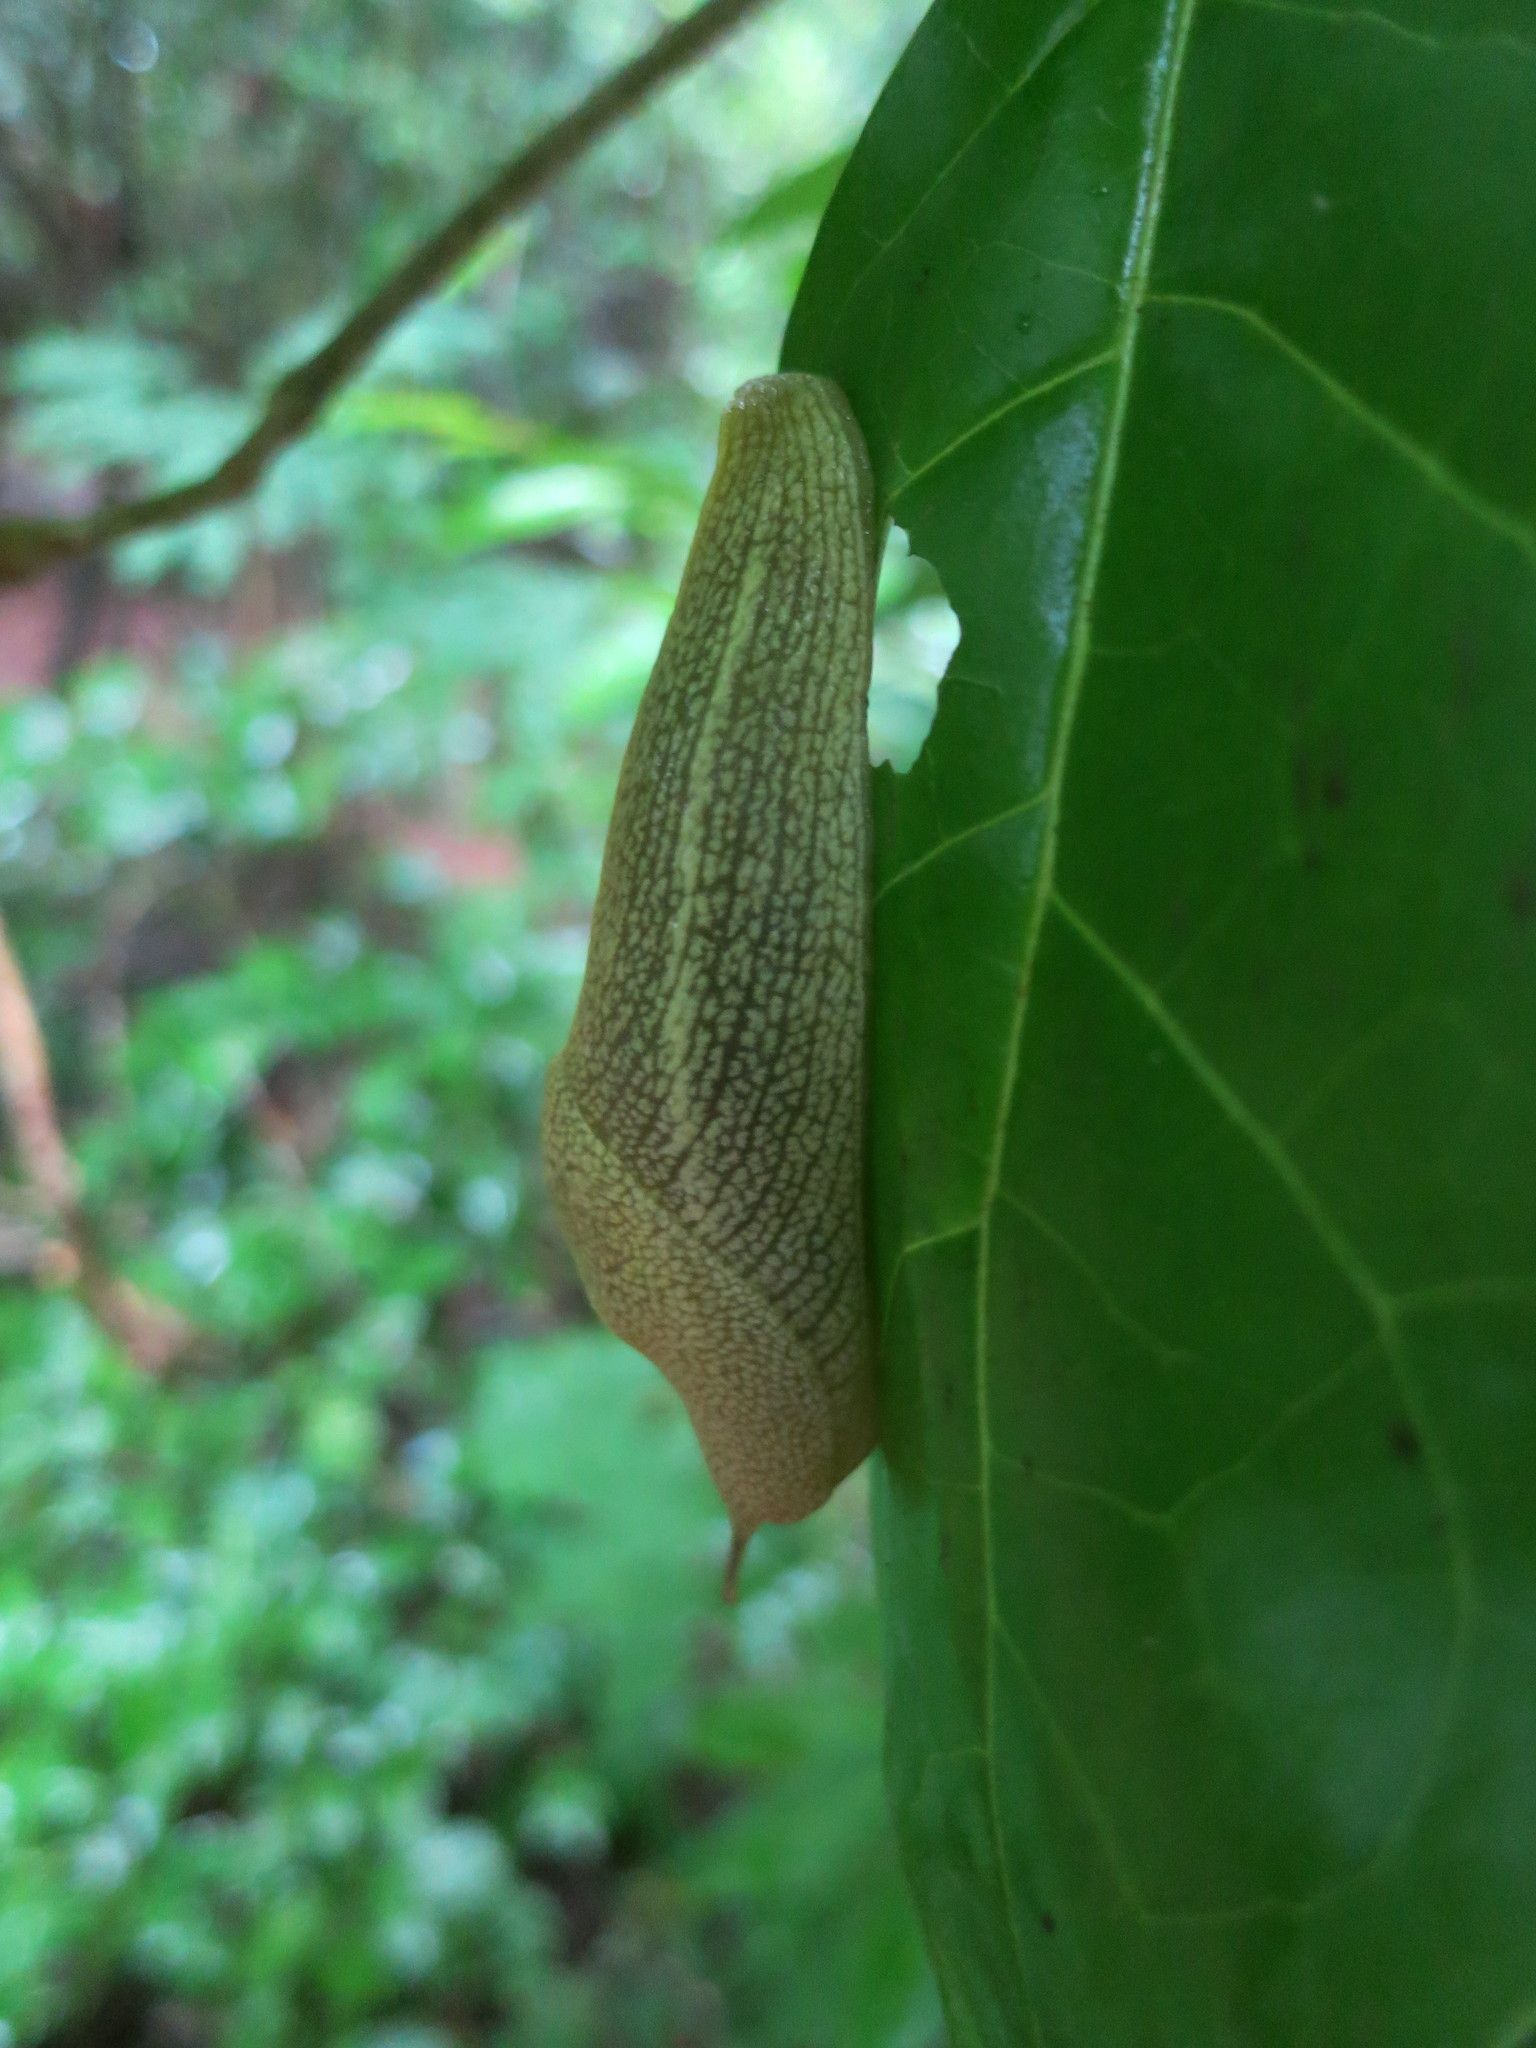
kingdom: Animalia
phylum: Mollusca
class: Gastropoda
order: Stylommatophora
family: Urocyclidae
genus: Elisolimax
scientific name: Elisolimax flavescens
